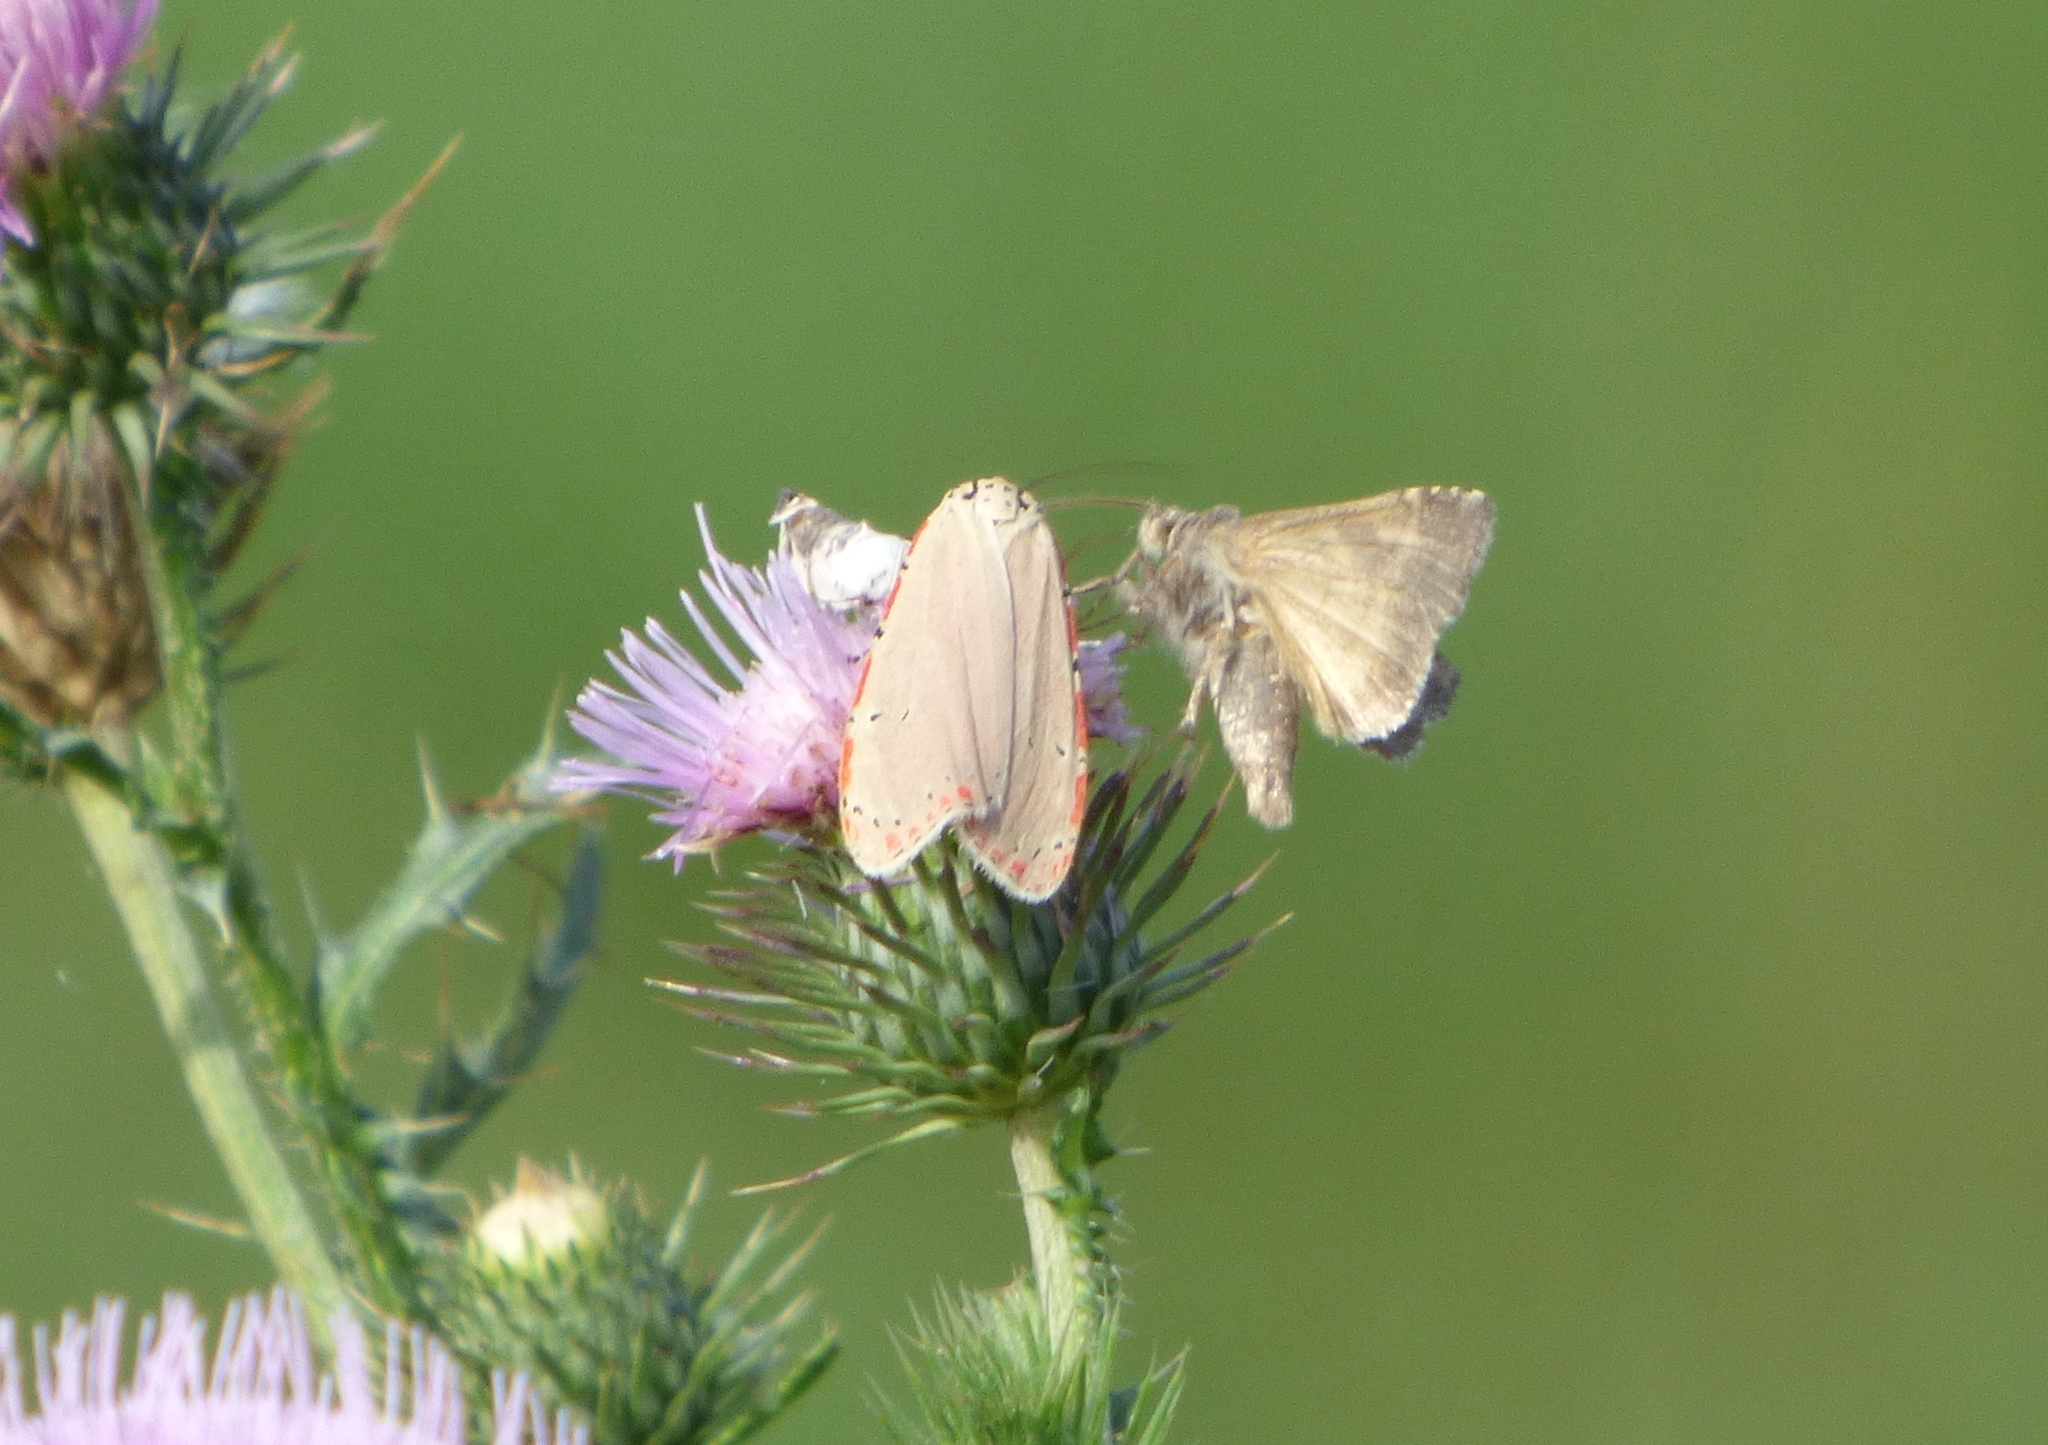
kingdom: Animalia
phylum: Arthropoda
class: Insecta
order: Lepidoptera
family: Erebidae
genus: Utetheisa
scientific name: Utetheisa ornatrix
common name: Beautiful utetheisa
